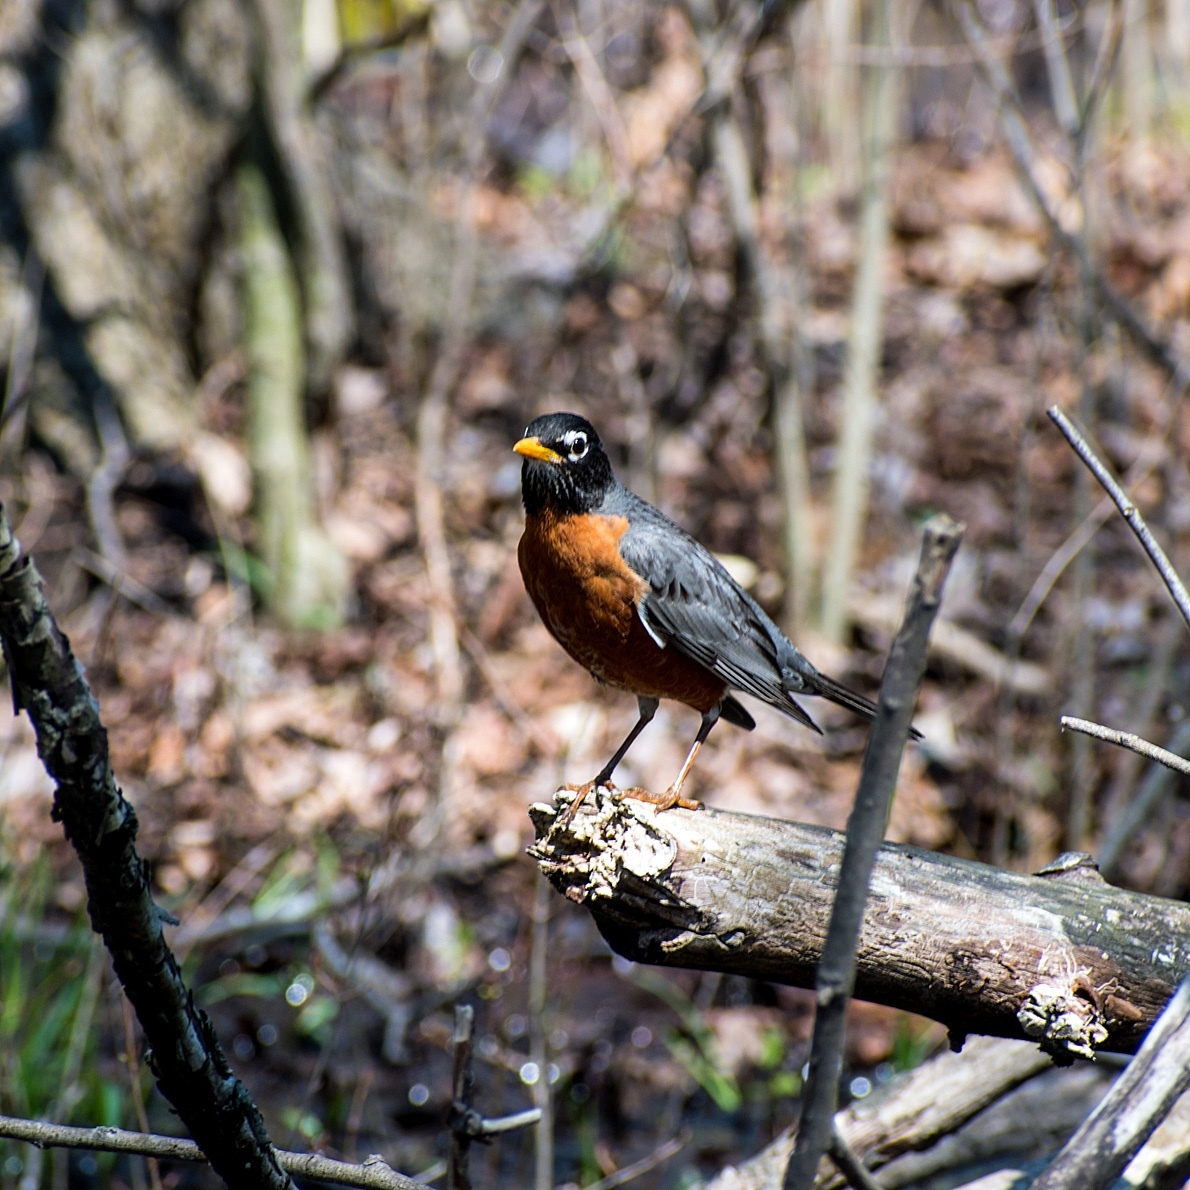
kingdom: Animalia
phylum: Chordata
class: Aves
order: Passeriformes
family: Turdidae
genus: Turdus
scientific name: Turdus migratorius
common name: American robin
